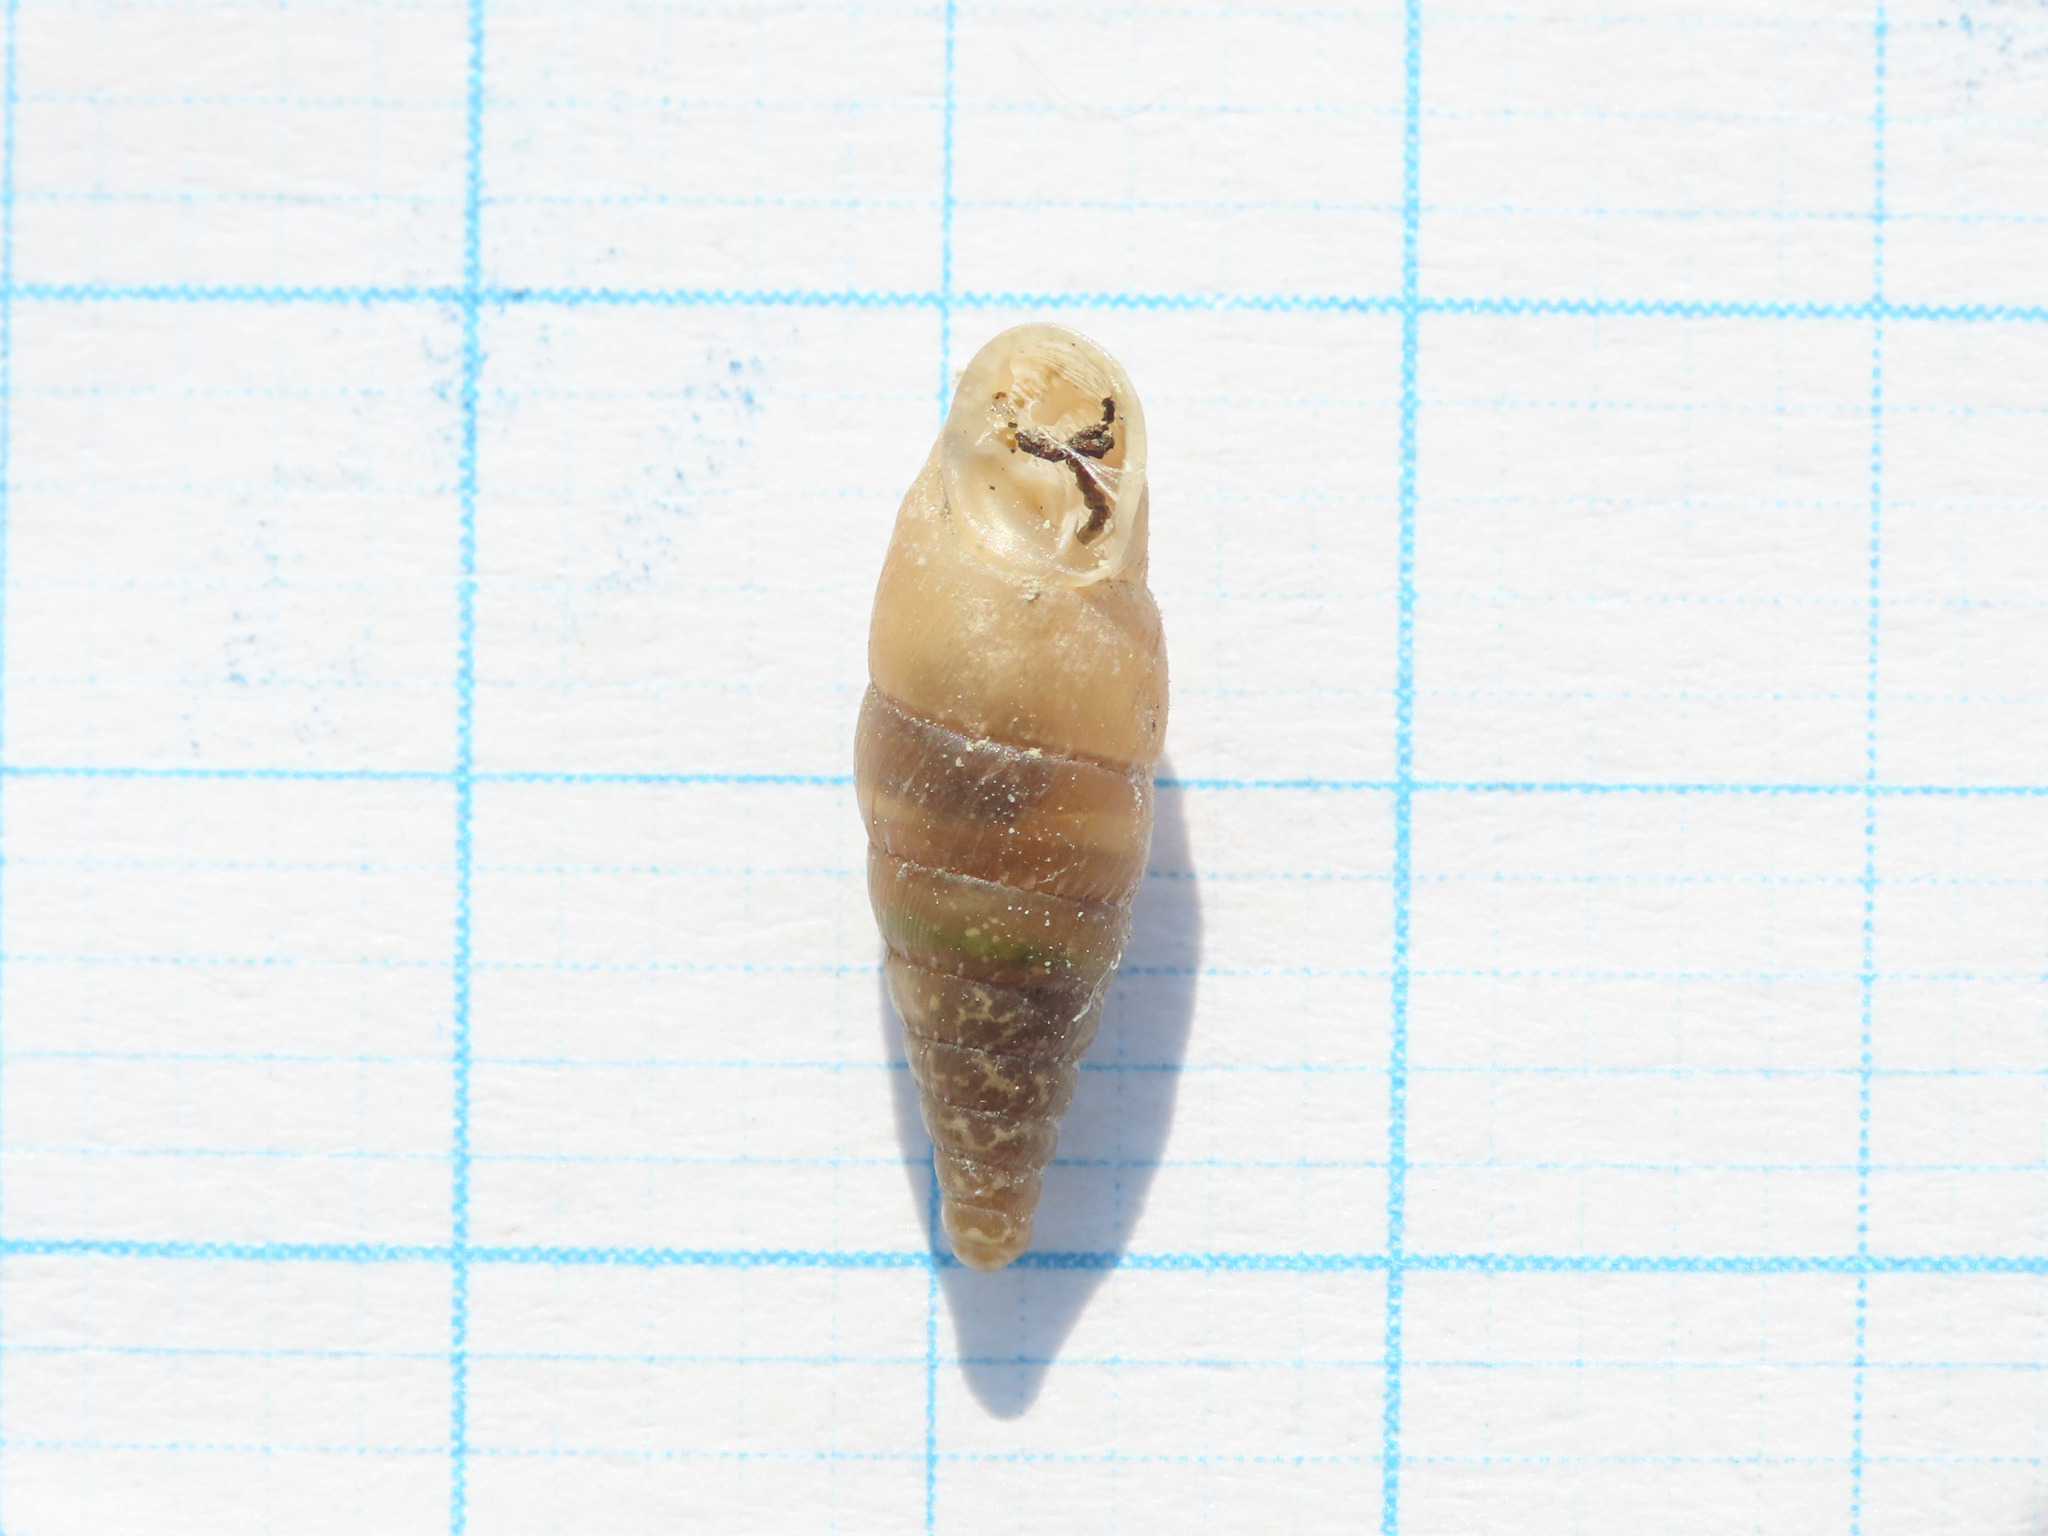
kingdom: Animalia
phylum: Mollusca
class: Gastropoda
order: Stylommatophora
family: Clausiliidae
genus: Gibbularia
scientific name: Gibbularia gibbula
